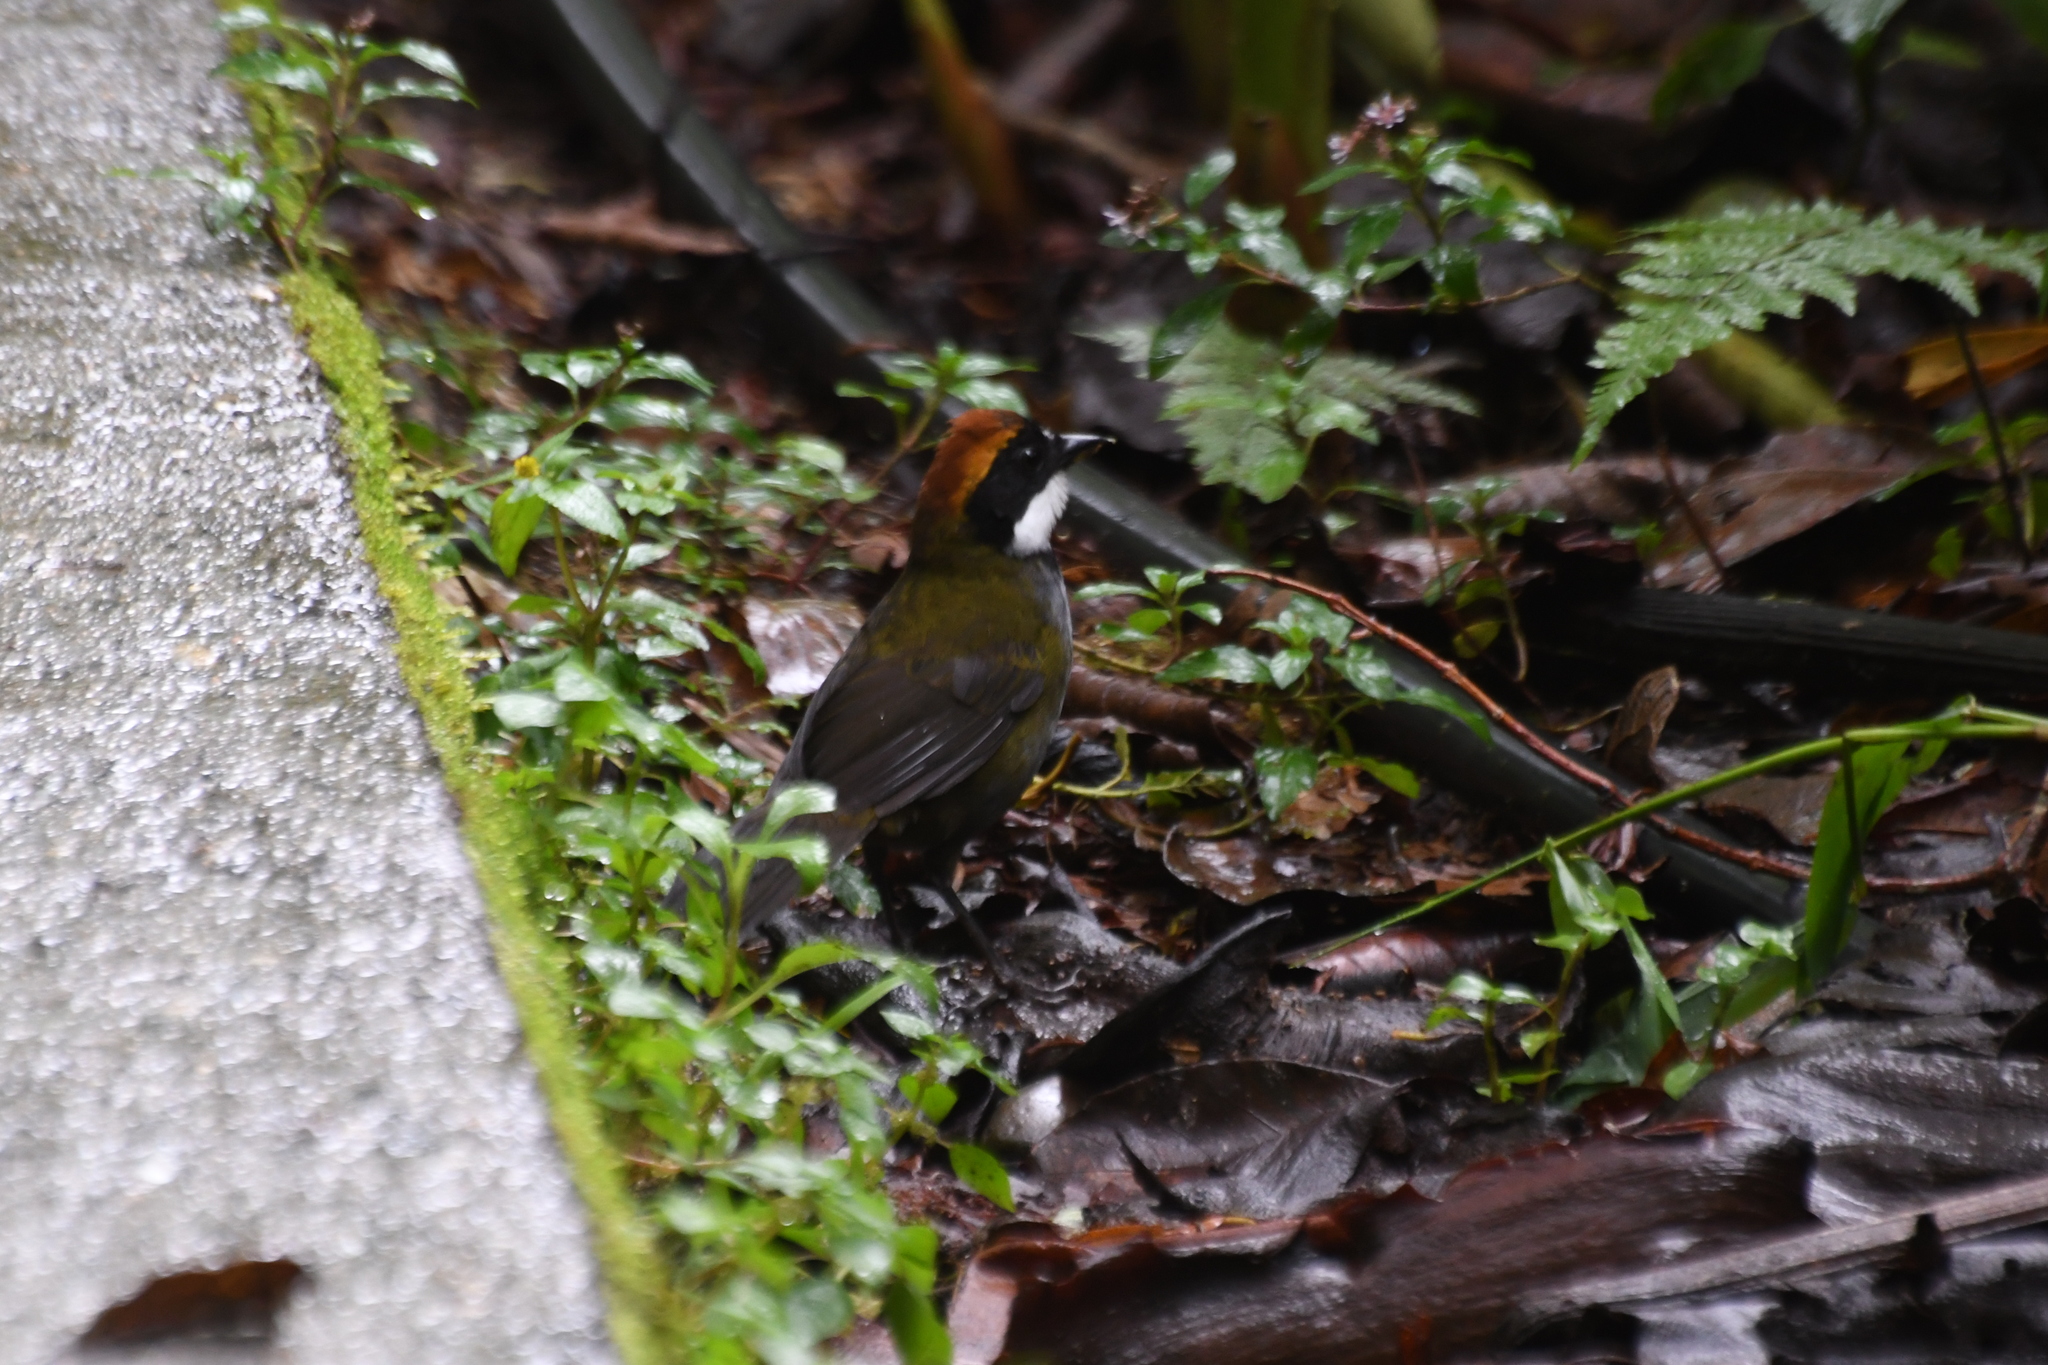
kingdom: Animalia
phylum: Chordata
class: Aves
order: Passeriformes
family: Passerellidae
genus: Arremon
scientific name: Arremon brunneinucha
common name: Chestnut-capped brushfinch
